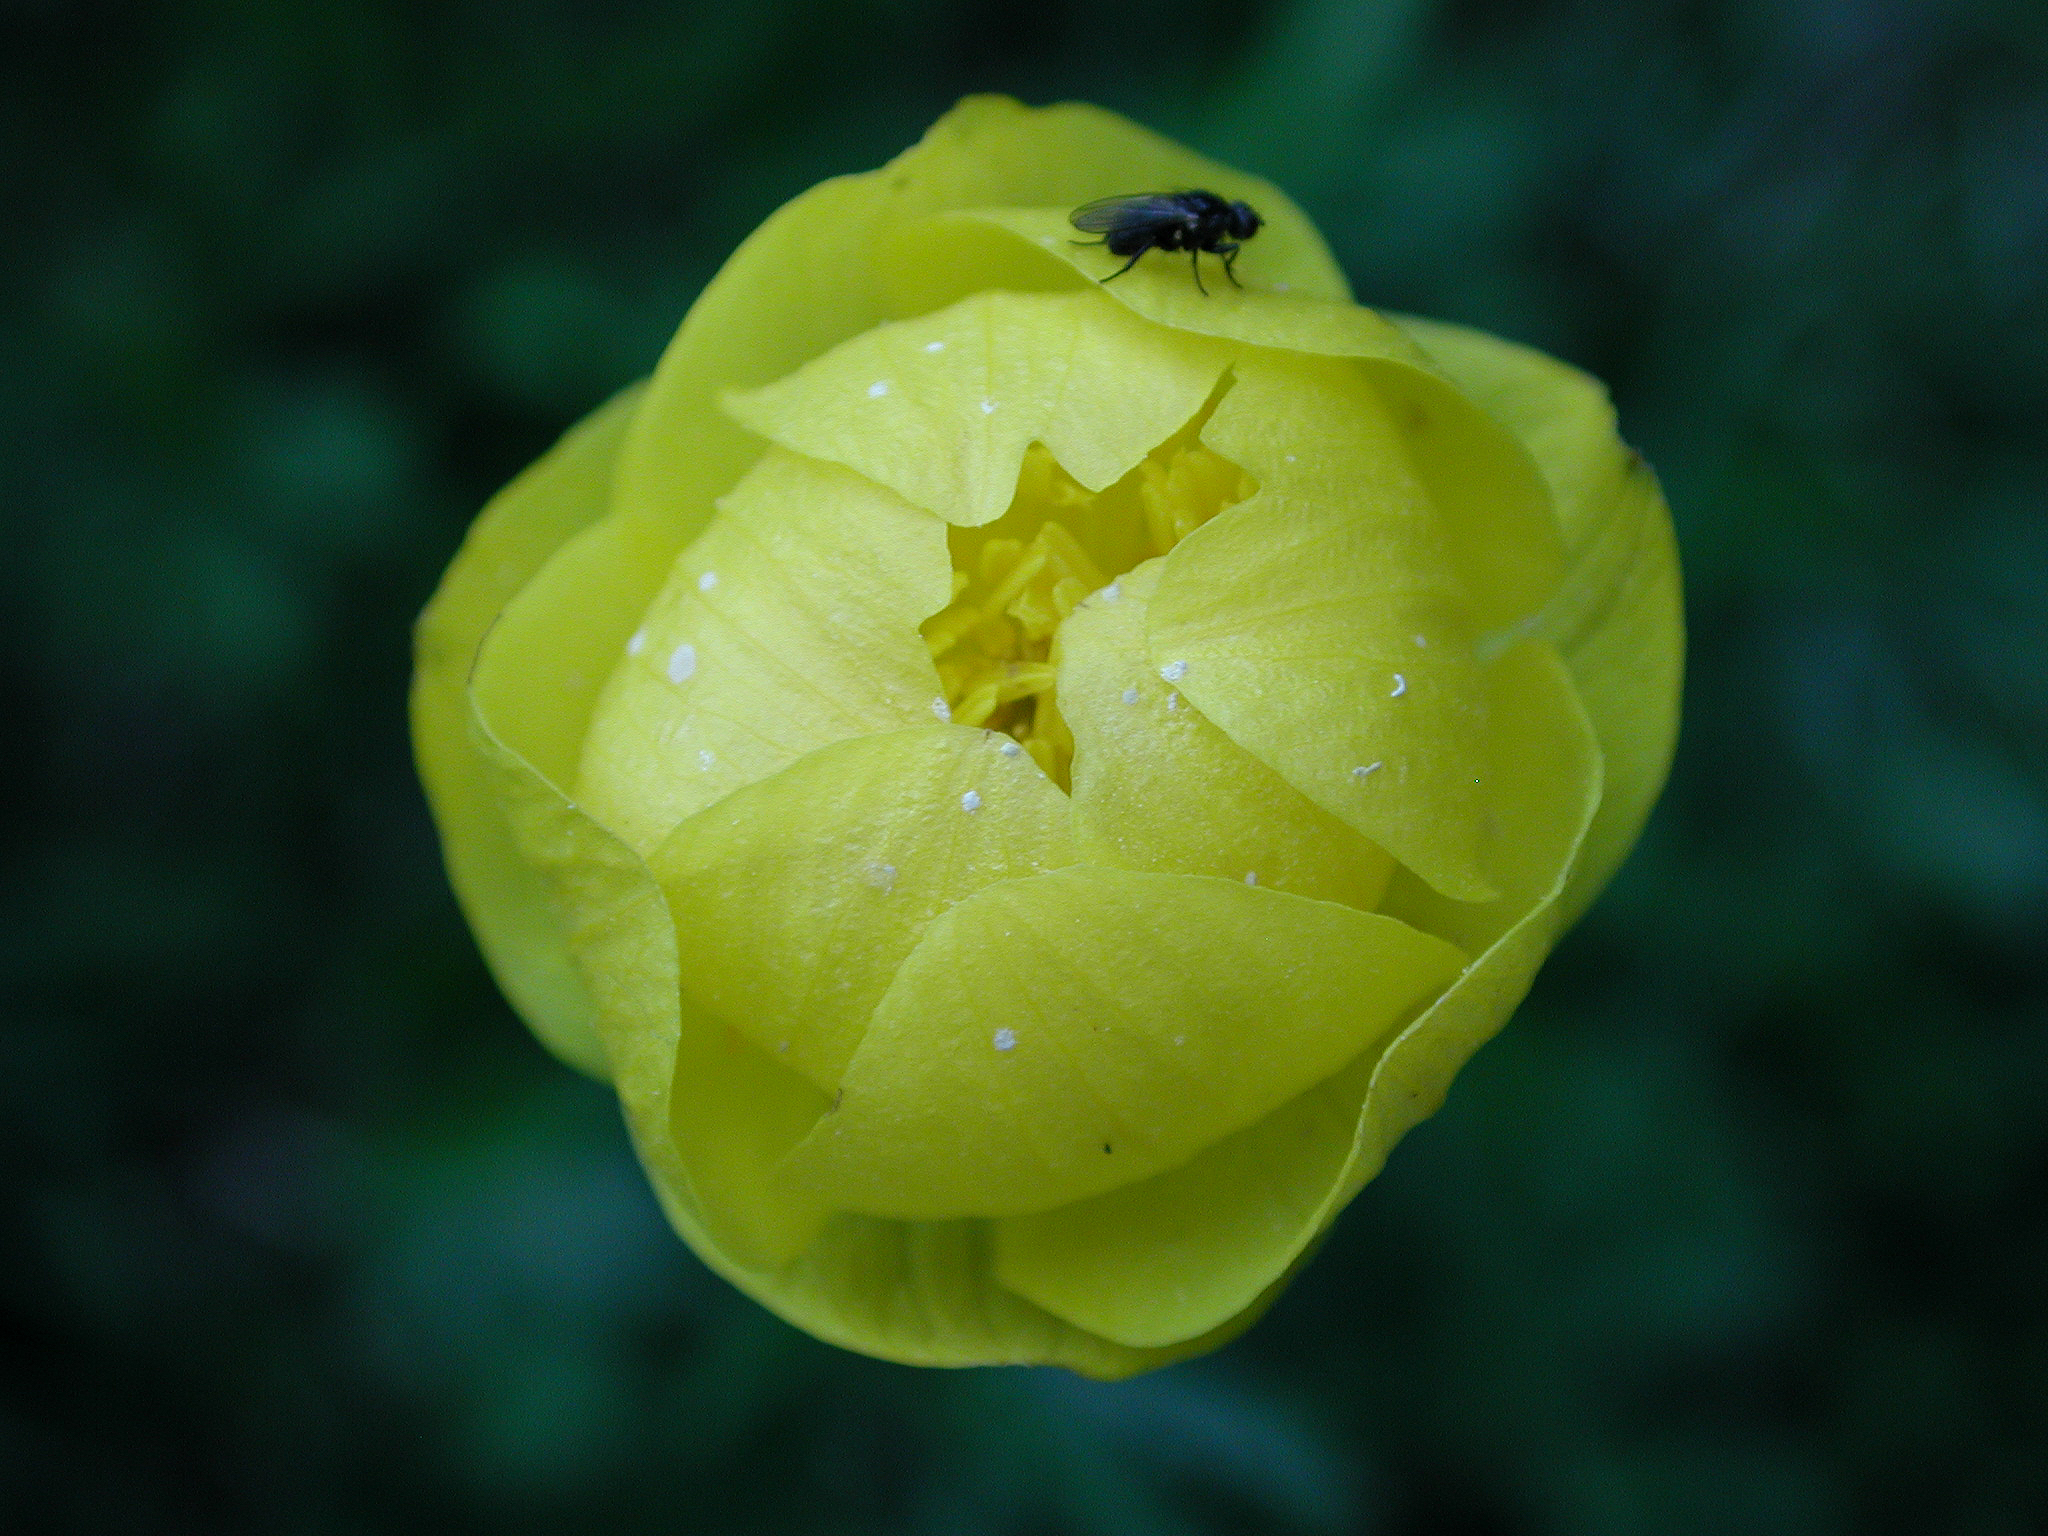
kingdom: Plantae
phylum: Tracheophyta
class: Magnoliopsida
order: Ranunculales
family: Ranunculaceae
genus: Trollius
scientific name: Trollius europaeus
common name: European globeflower
